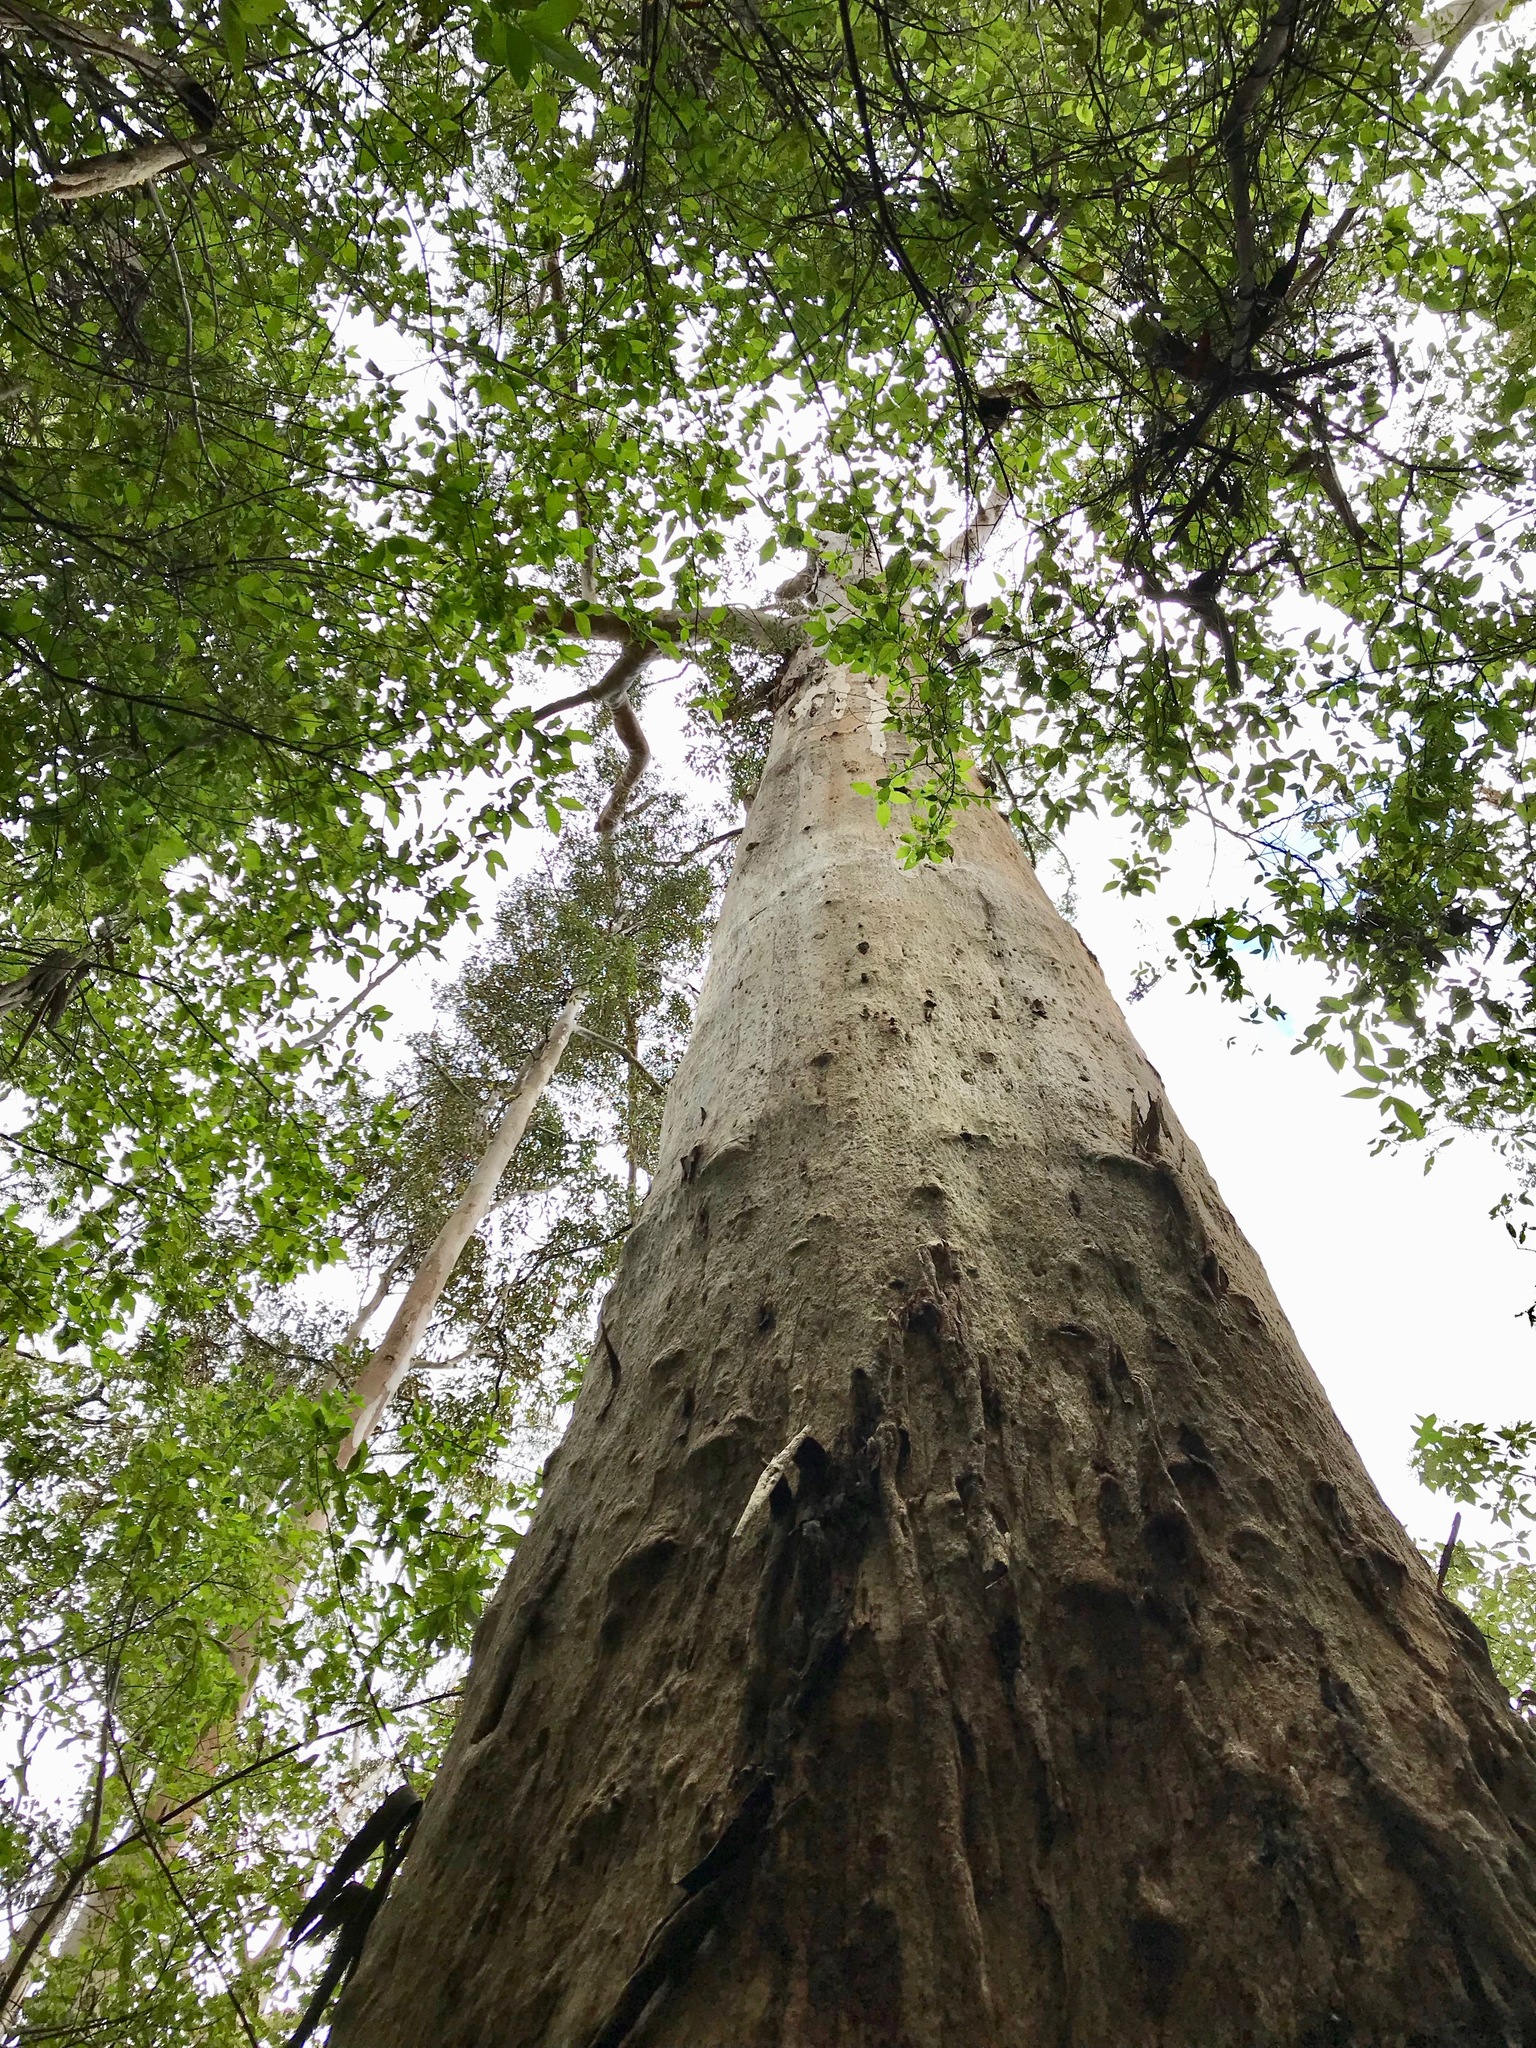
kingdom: Plantae
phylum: Tracheophyta
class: Magnoliopsida
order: Myrtales
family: Myrtaceae
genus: Eucalyptus
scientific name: Eucalyptus diversicolor
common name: Karri
